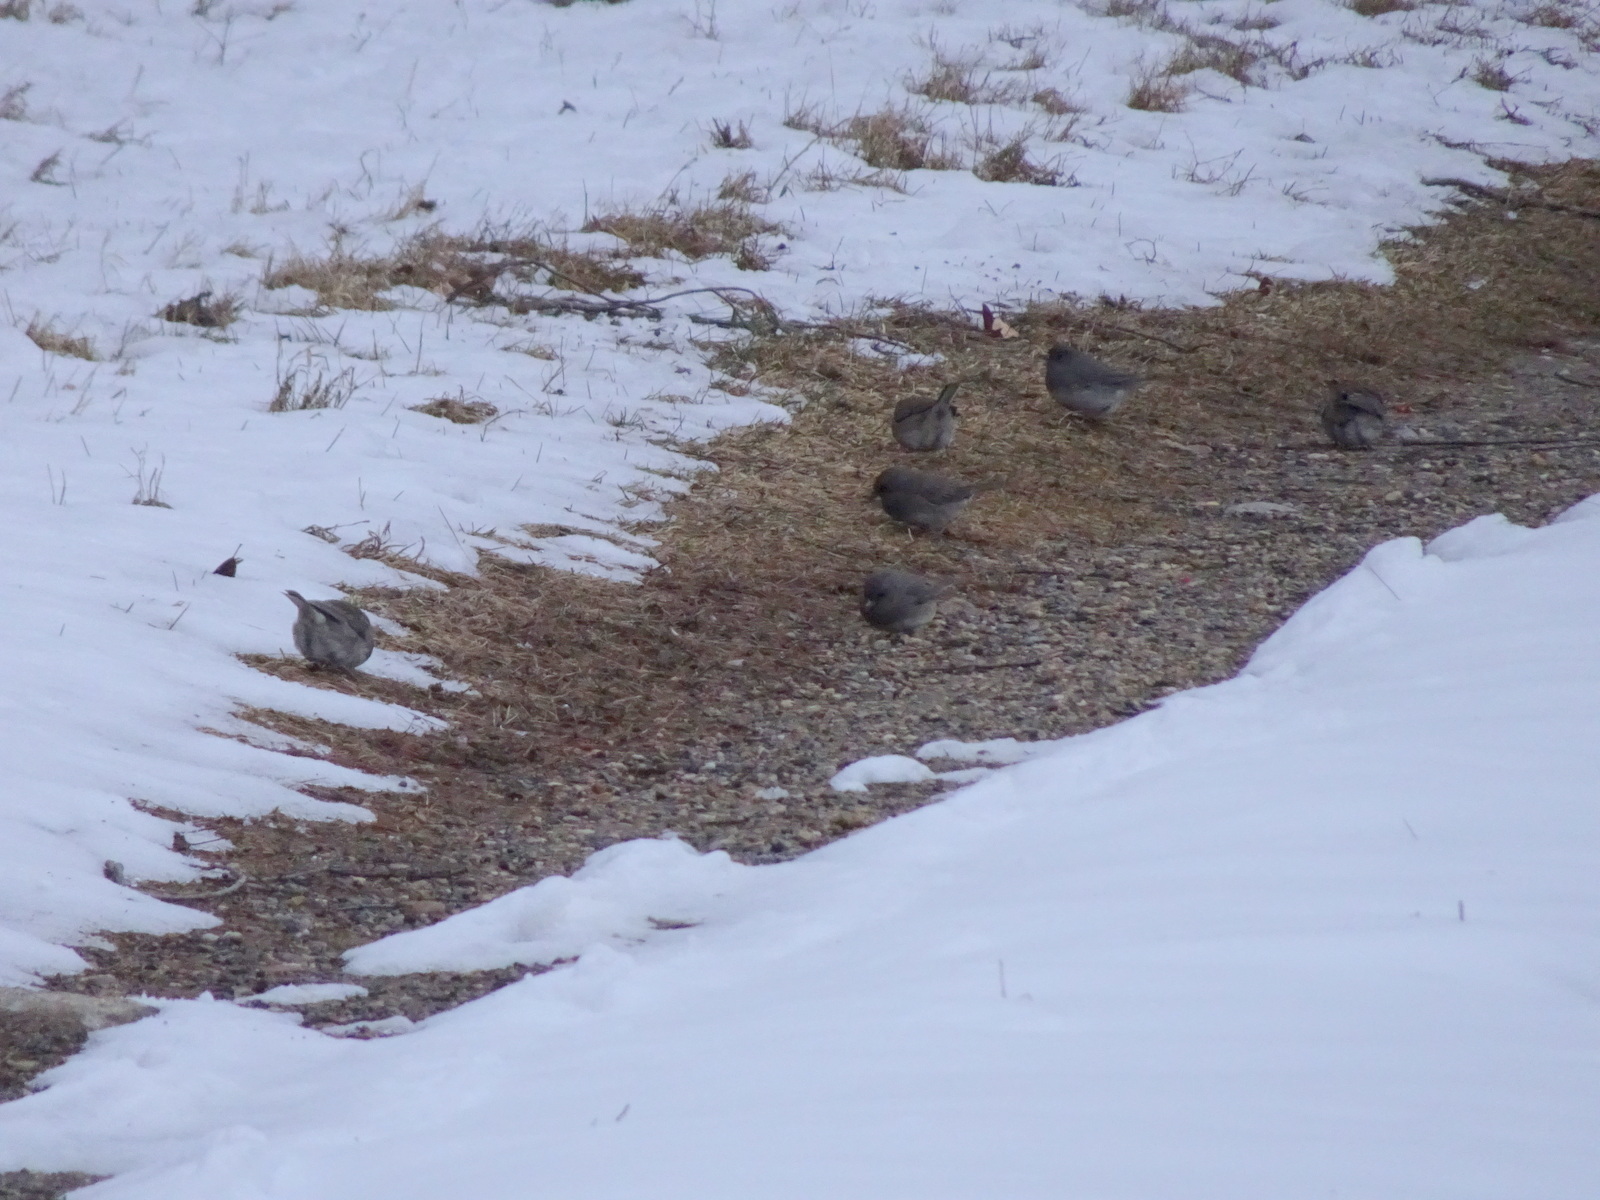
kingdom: Animalia
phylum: Chordata
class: Aves
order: Passeriformes
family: Passerellidae
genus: Junco
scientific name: Junco hyemalis
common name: Dark-eyed junco
